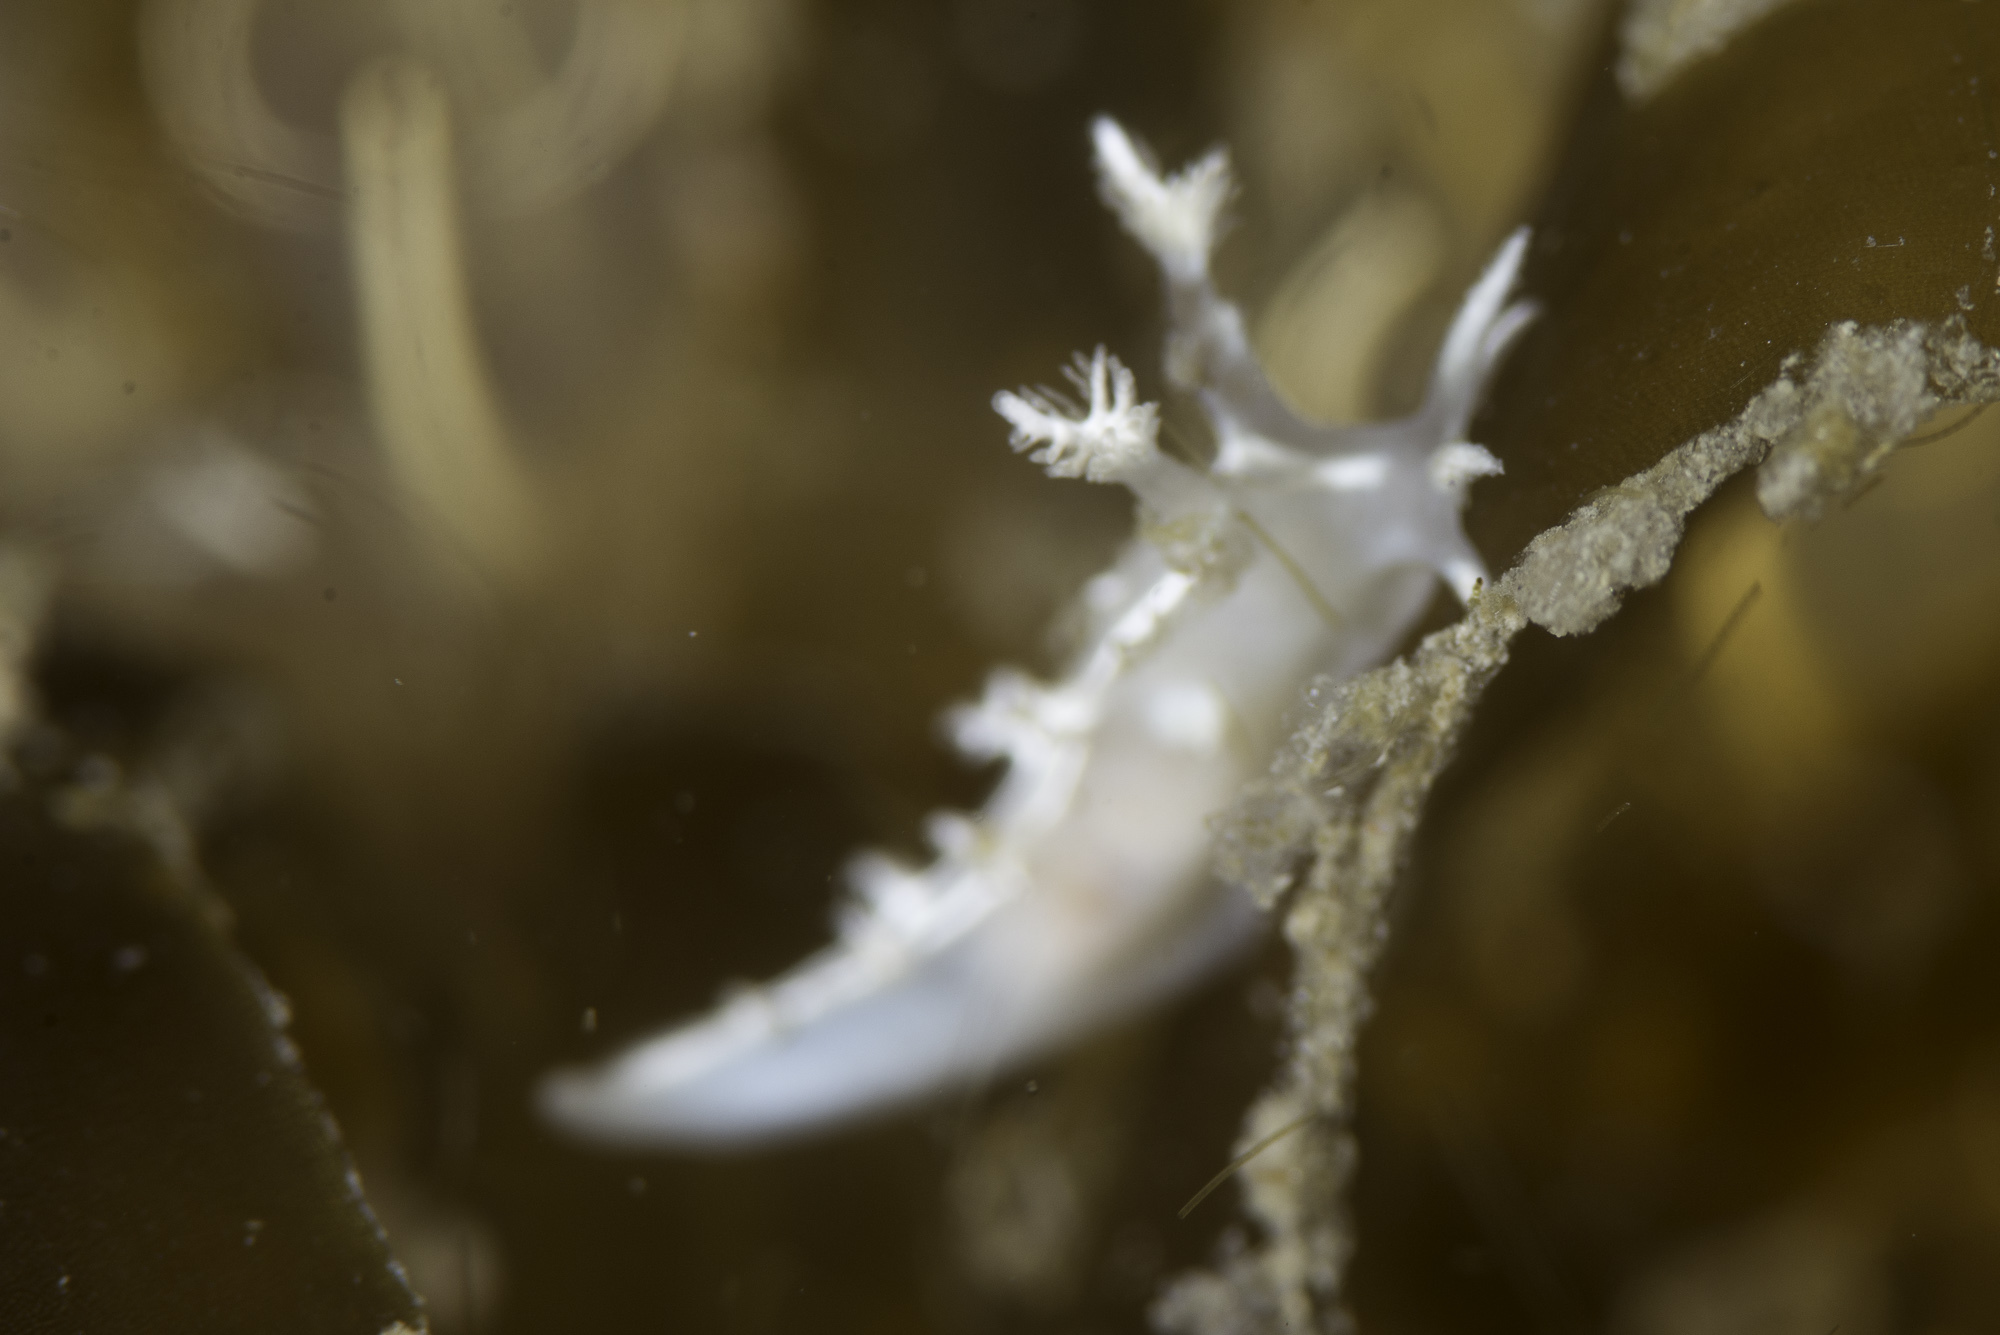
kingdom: Animalia
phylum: Mollusca
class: Gastropoda
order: Nudibranchia
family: Tritoniidae
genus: Duvaucelia
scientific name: Duvaucelia lineata
